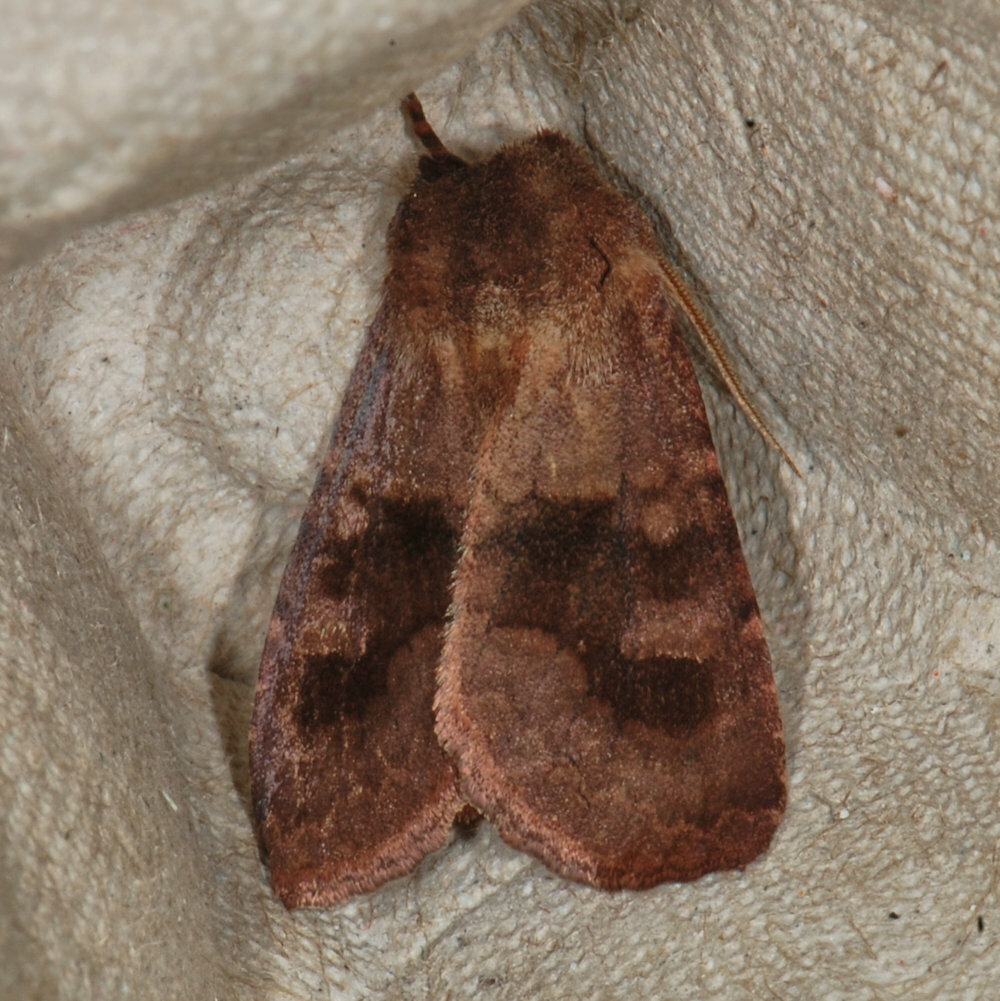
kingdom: Animalia
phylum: Arthropoda
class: Insecta
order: Lepidoptera
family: Noctuidae
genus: Nephelodes
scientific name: Nephelodes minians
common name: Bronzed cutworm
